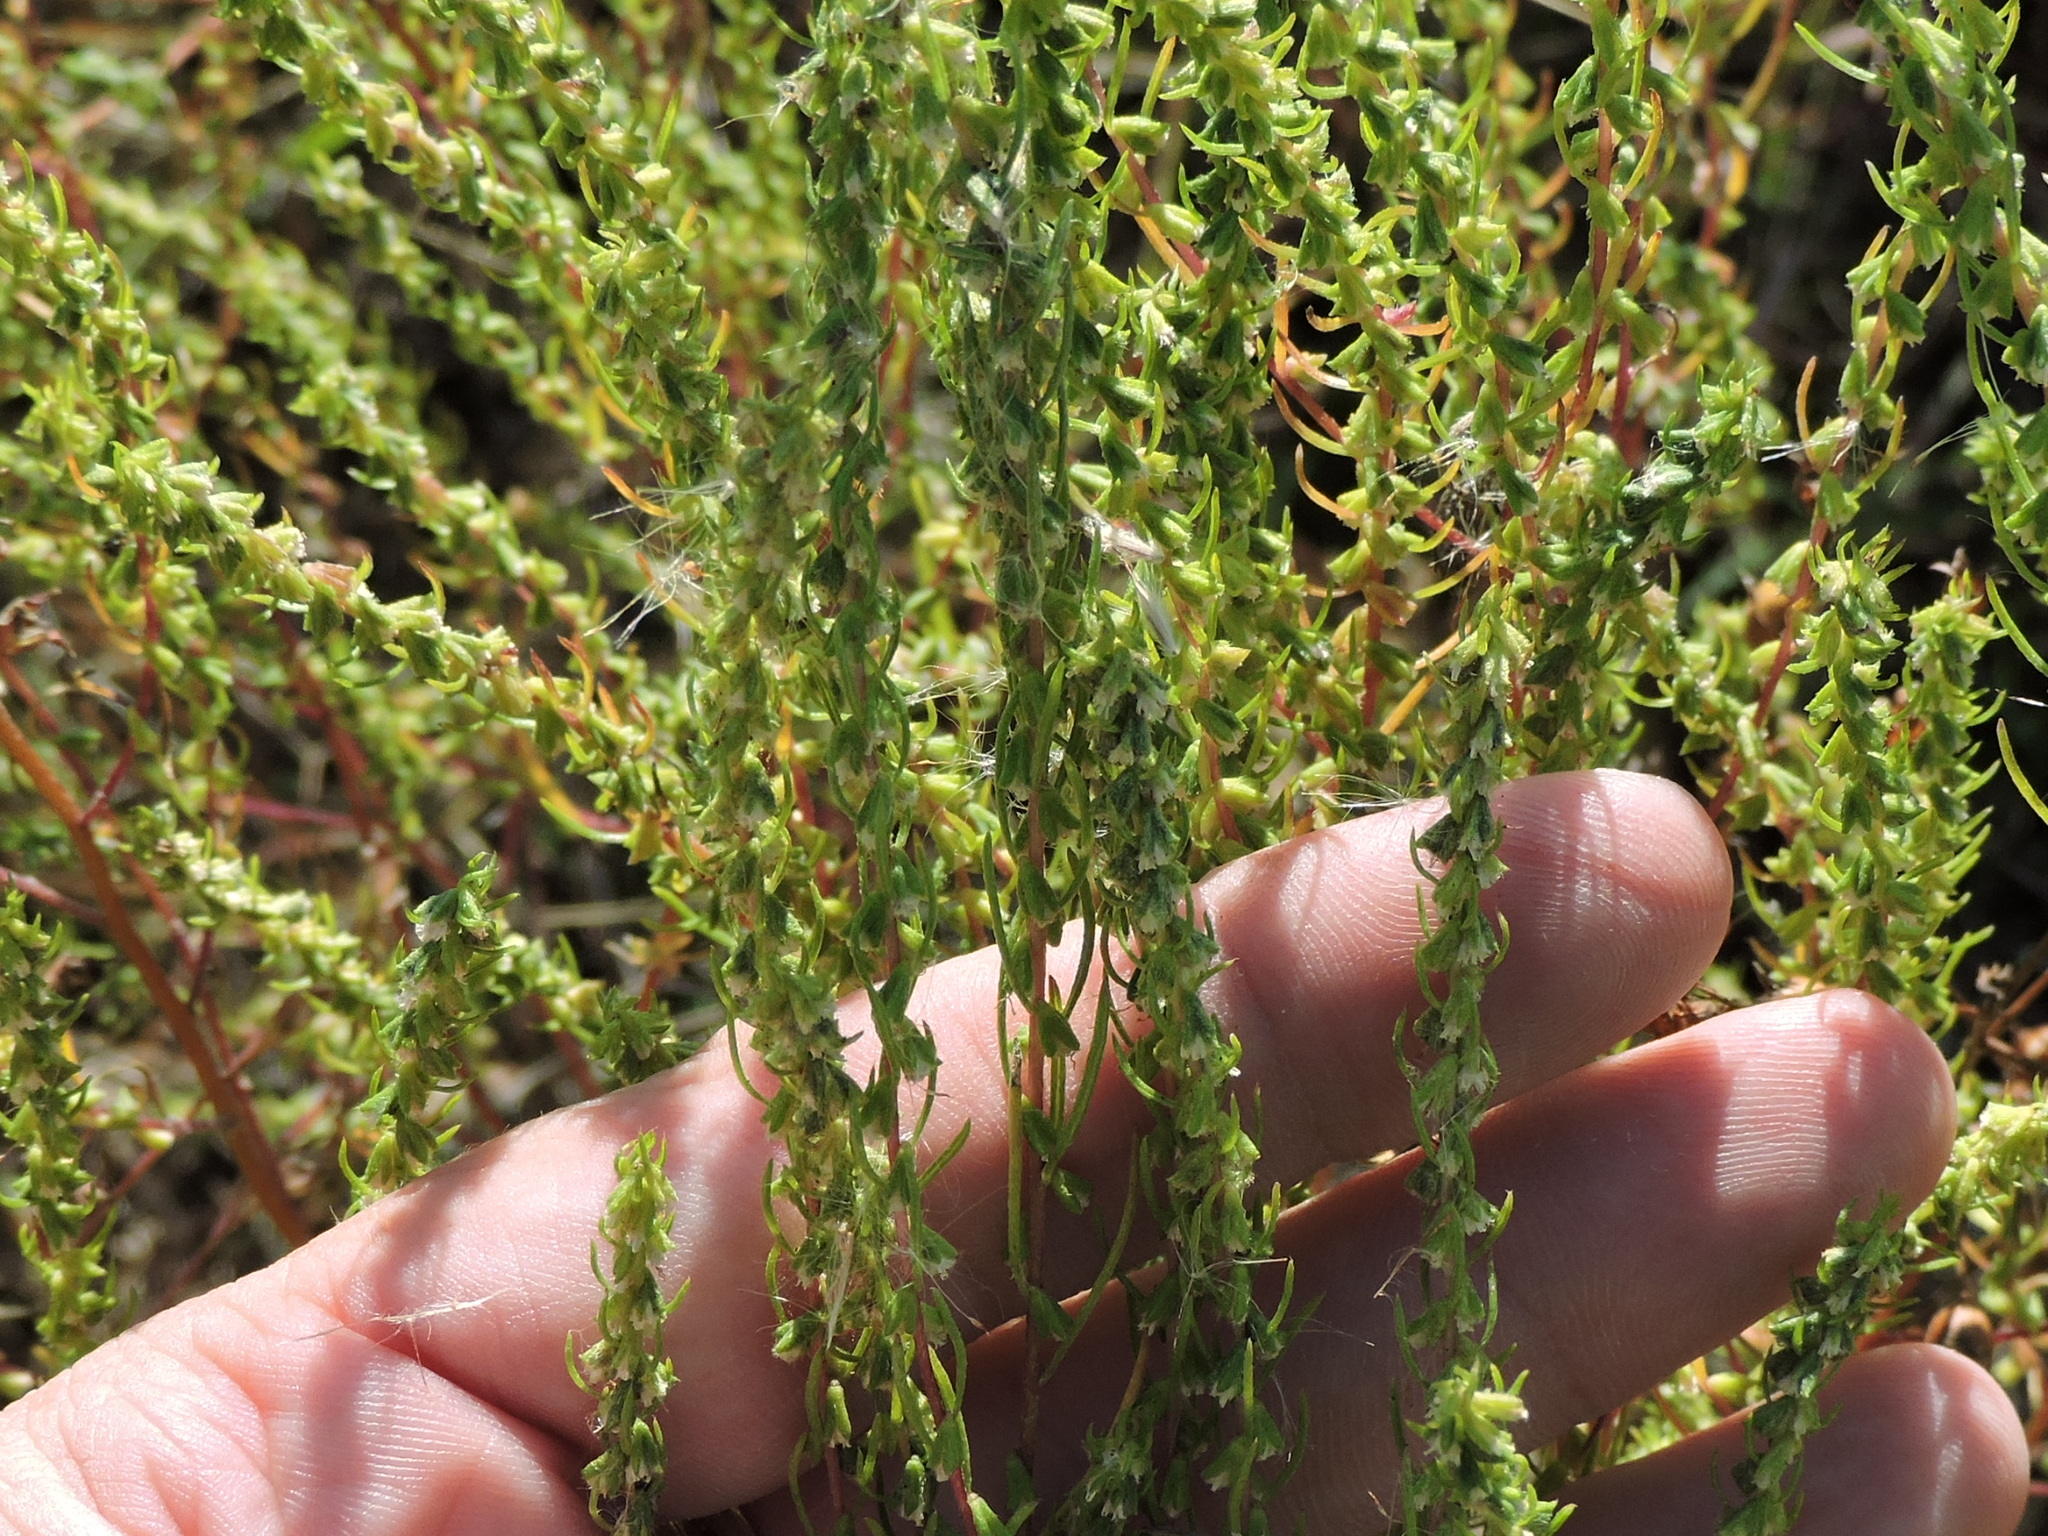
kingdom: Plantae
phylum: Tracheophyta
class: Magnoliopsida
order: Asterales
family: Asteraceae
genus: Iva
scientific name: Iva asperifolia
